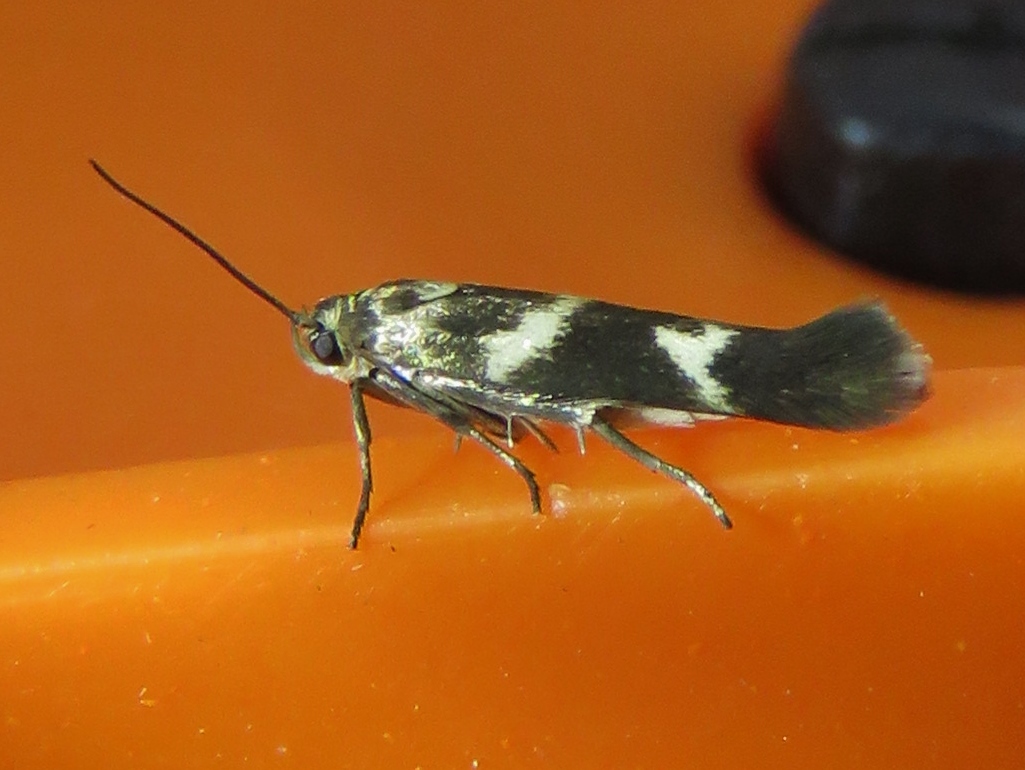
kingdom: Animalia
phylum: Arthropoda
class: Insecta
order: Lepidoptera
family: Scythrididae
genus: Scythris
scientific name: Scythris trivinctella
